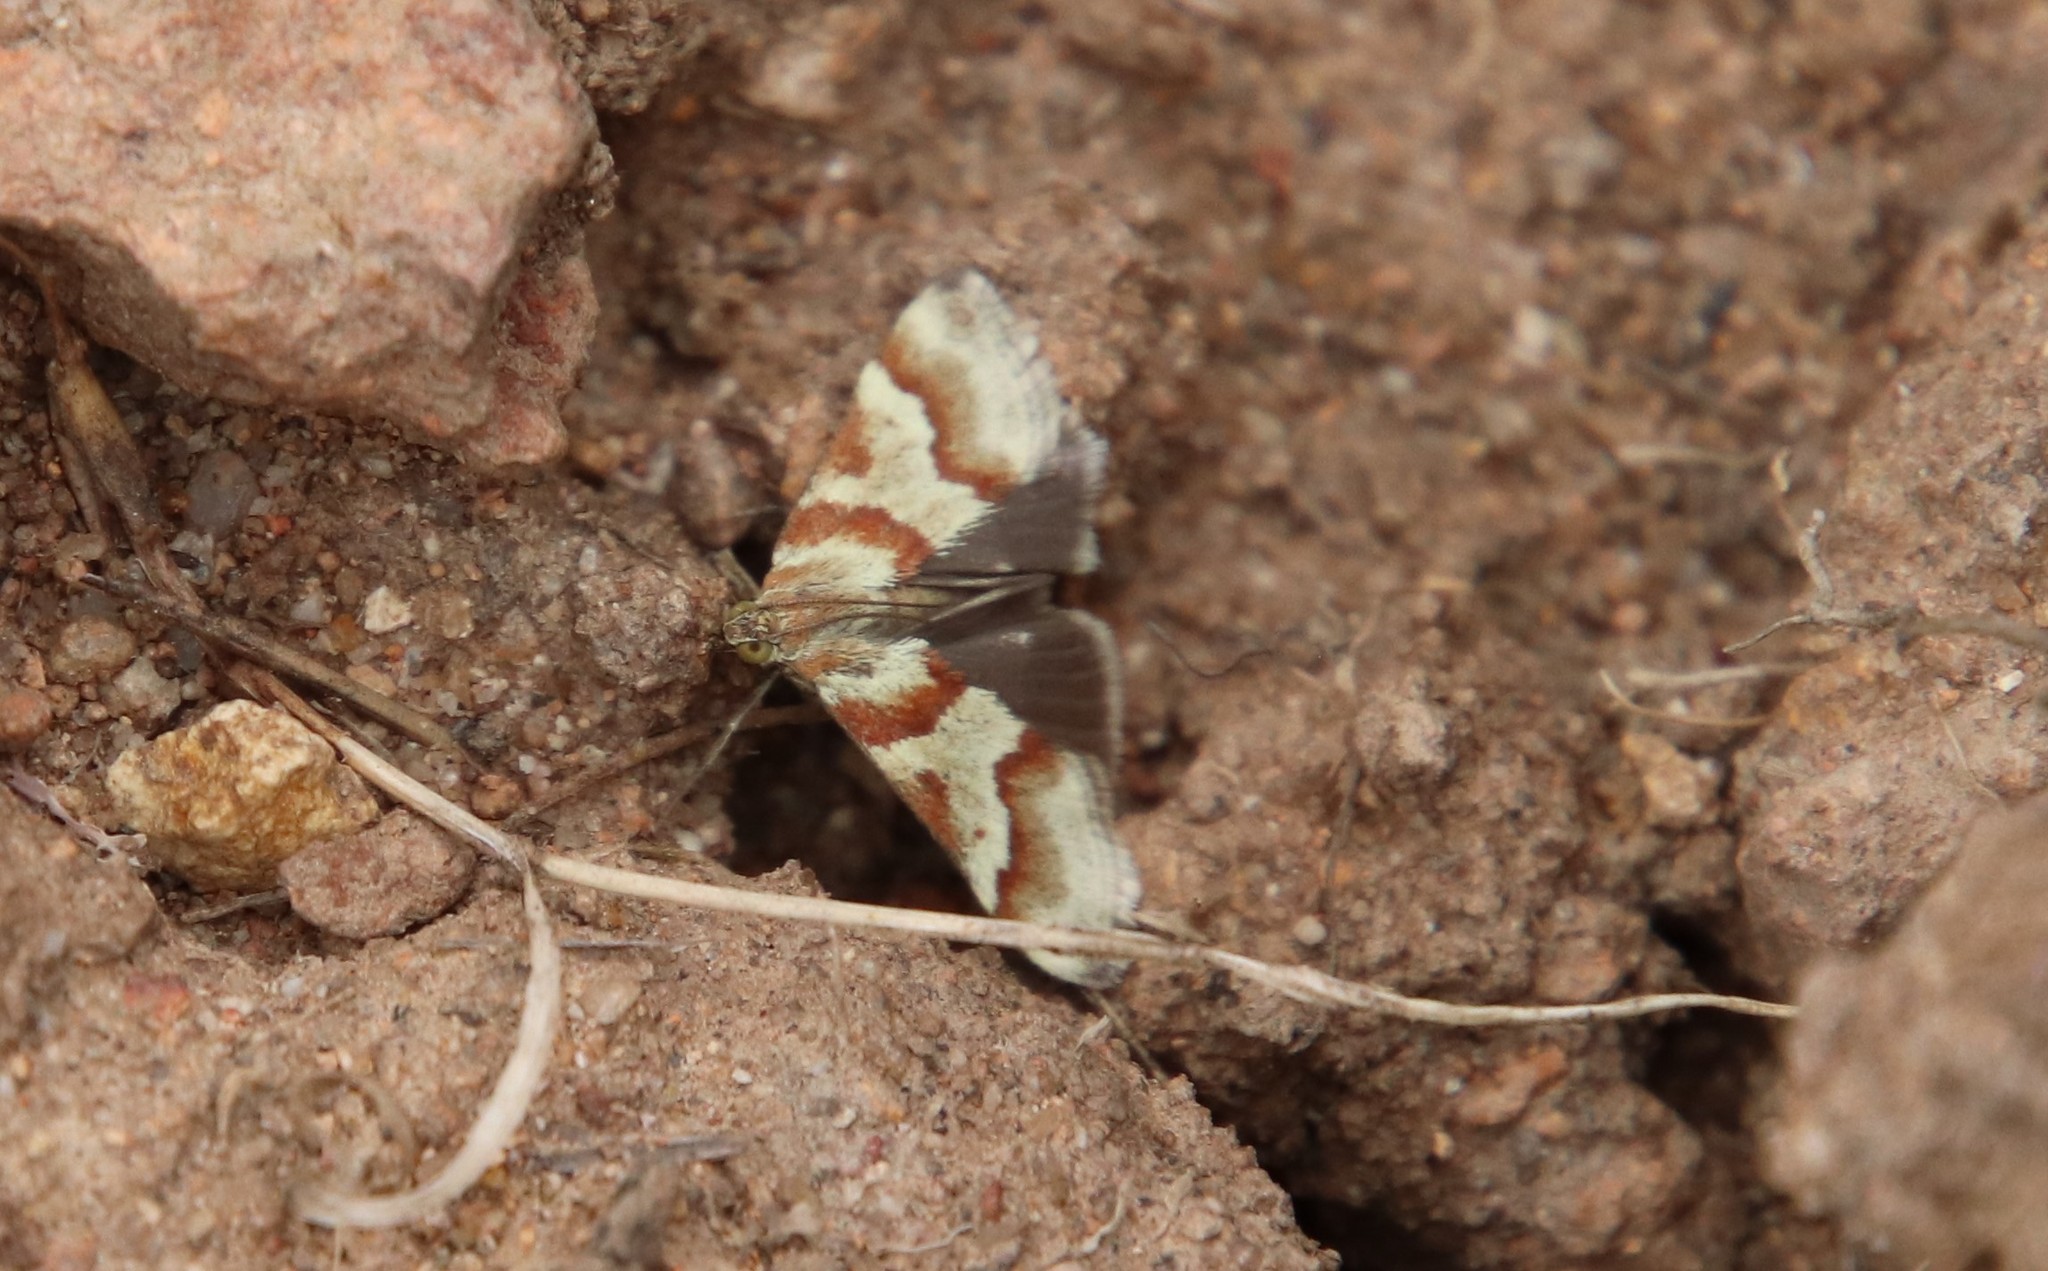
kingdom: Animalia
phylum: Arthropoda
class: Insecta
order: Lepidoptera
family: Crambidae
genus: Noctuelia
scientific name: Noctuelia Mimoschinia rufofascialis
